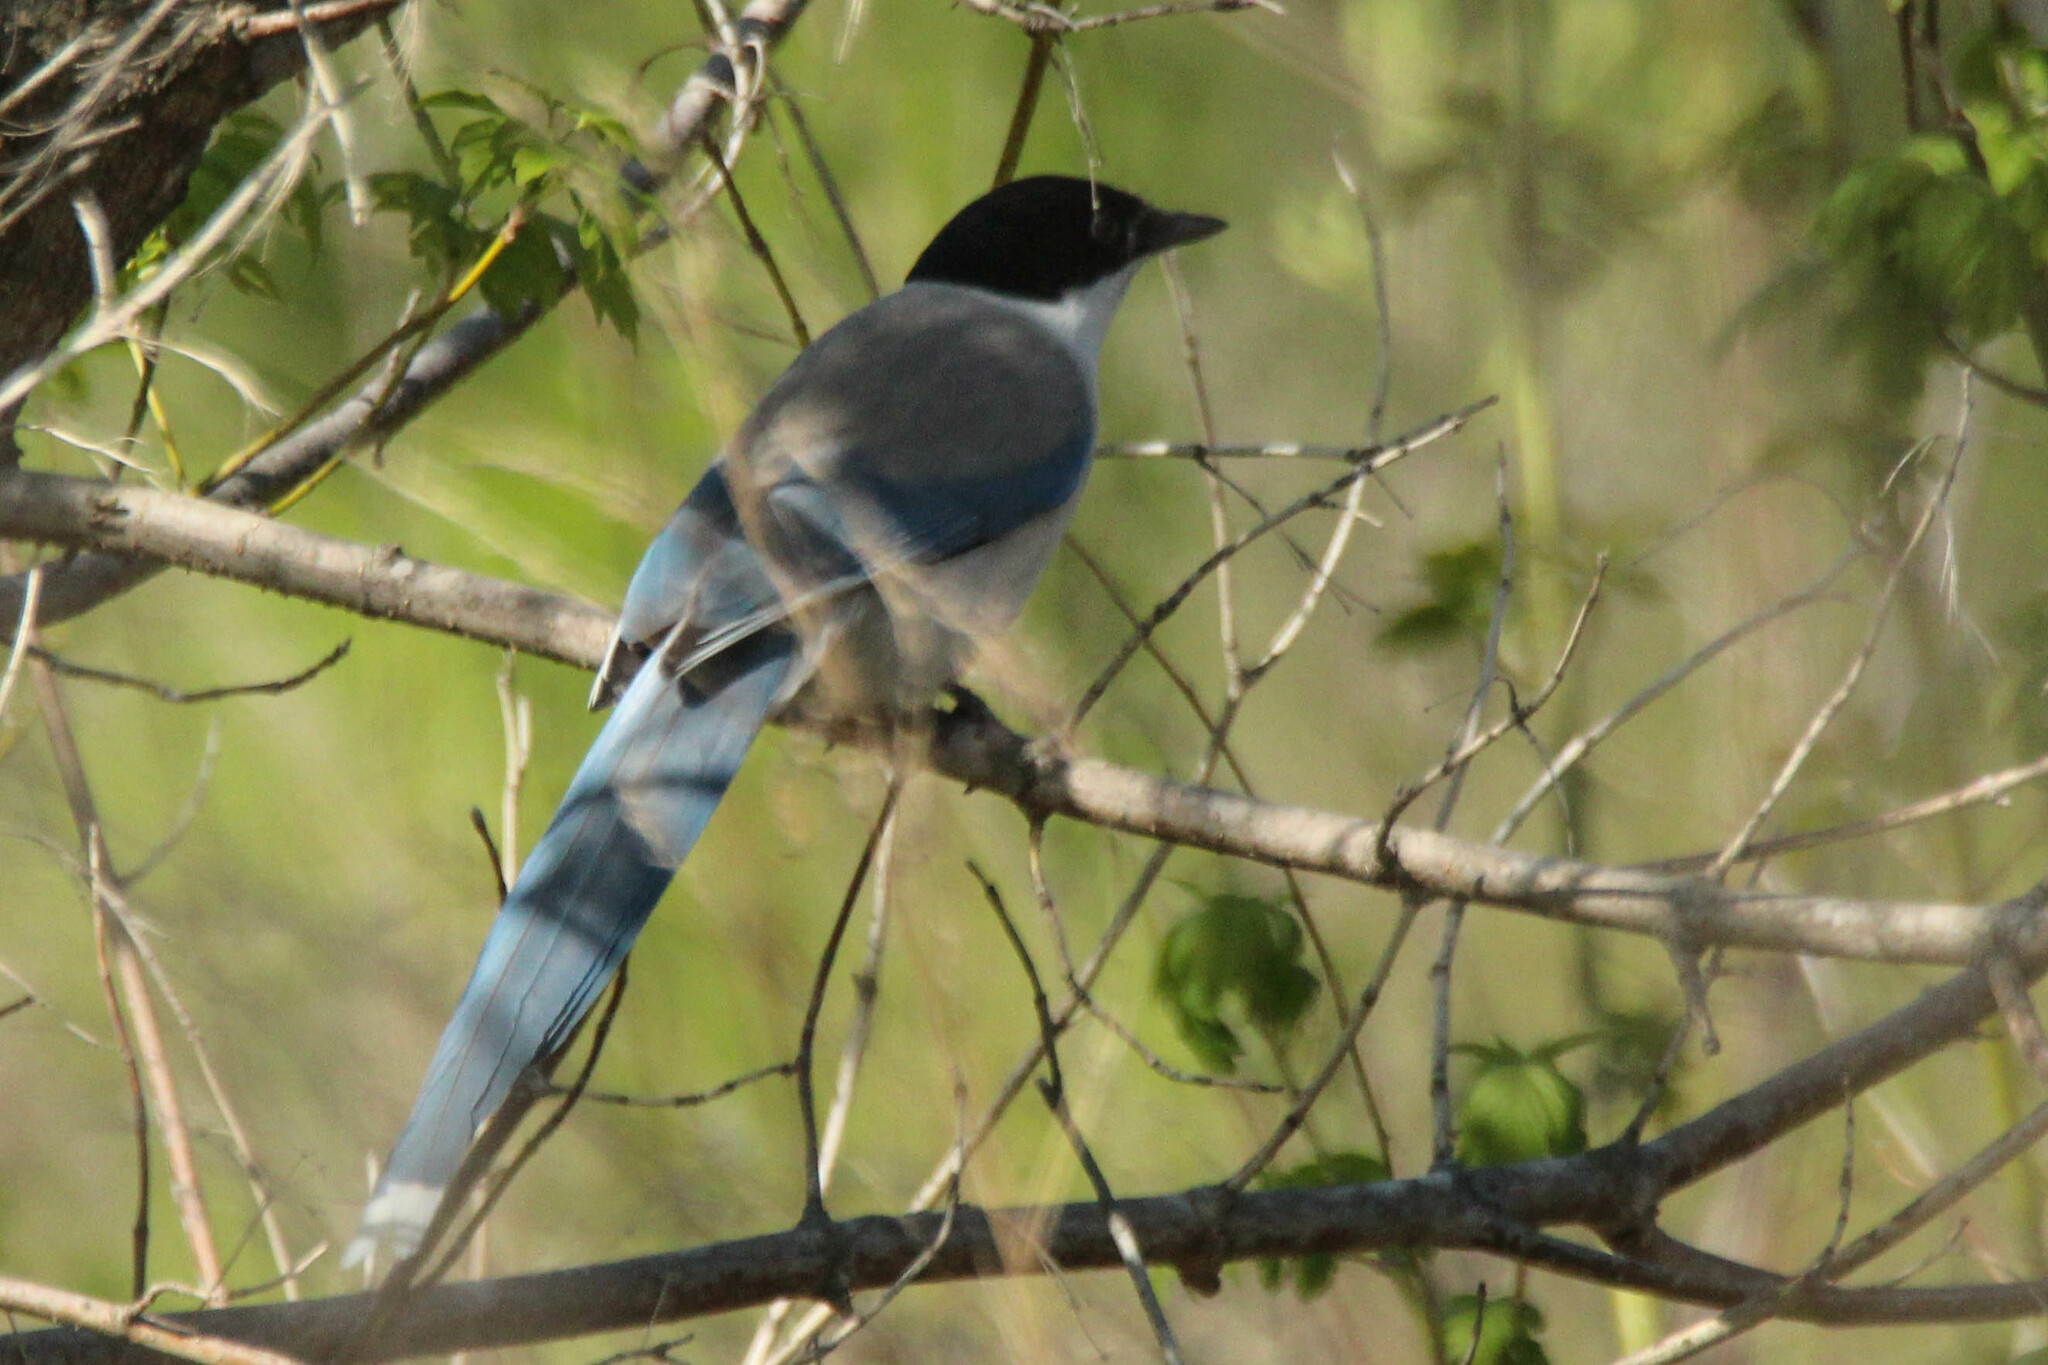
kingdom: Animalia
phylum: Chordata
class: Aves
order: Passeriformes
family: Corvidae
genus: Cyanopica
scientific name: Cyanopica cyanus
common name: Azure-winged magpie
